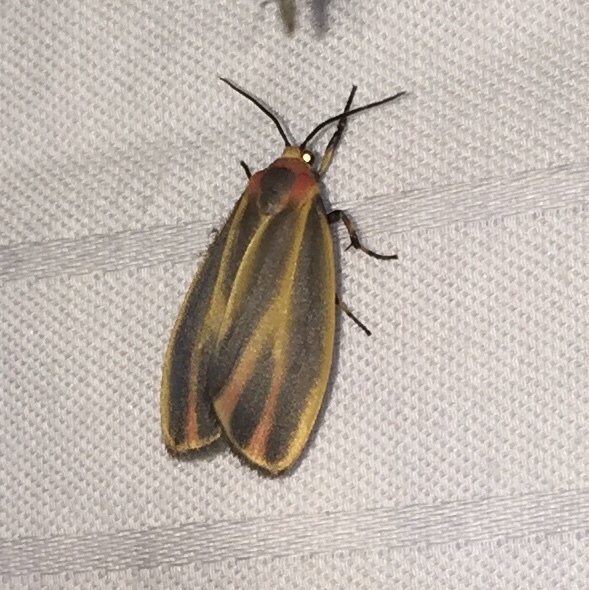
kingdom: Animalia
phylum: Arthropoda
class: Insecta
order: Lepidoptera
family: Erebidae
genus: Hypoprepia
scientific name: Hypoprepia fucosa
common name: Painted lichen moth
